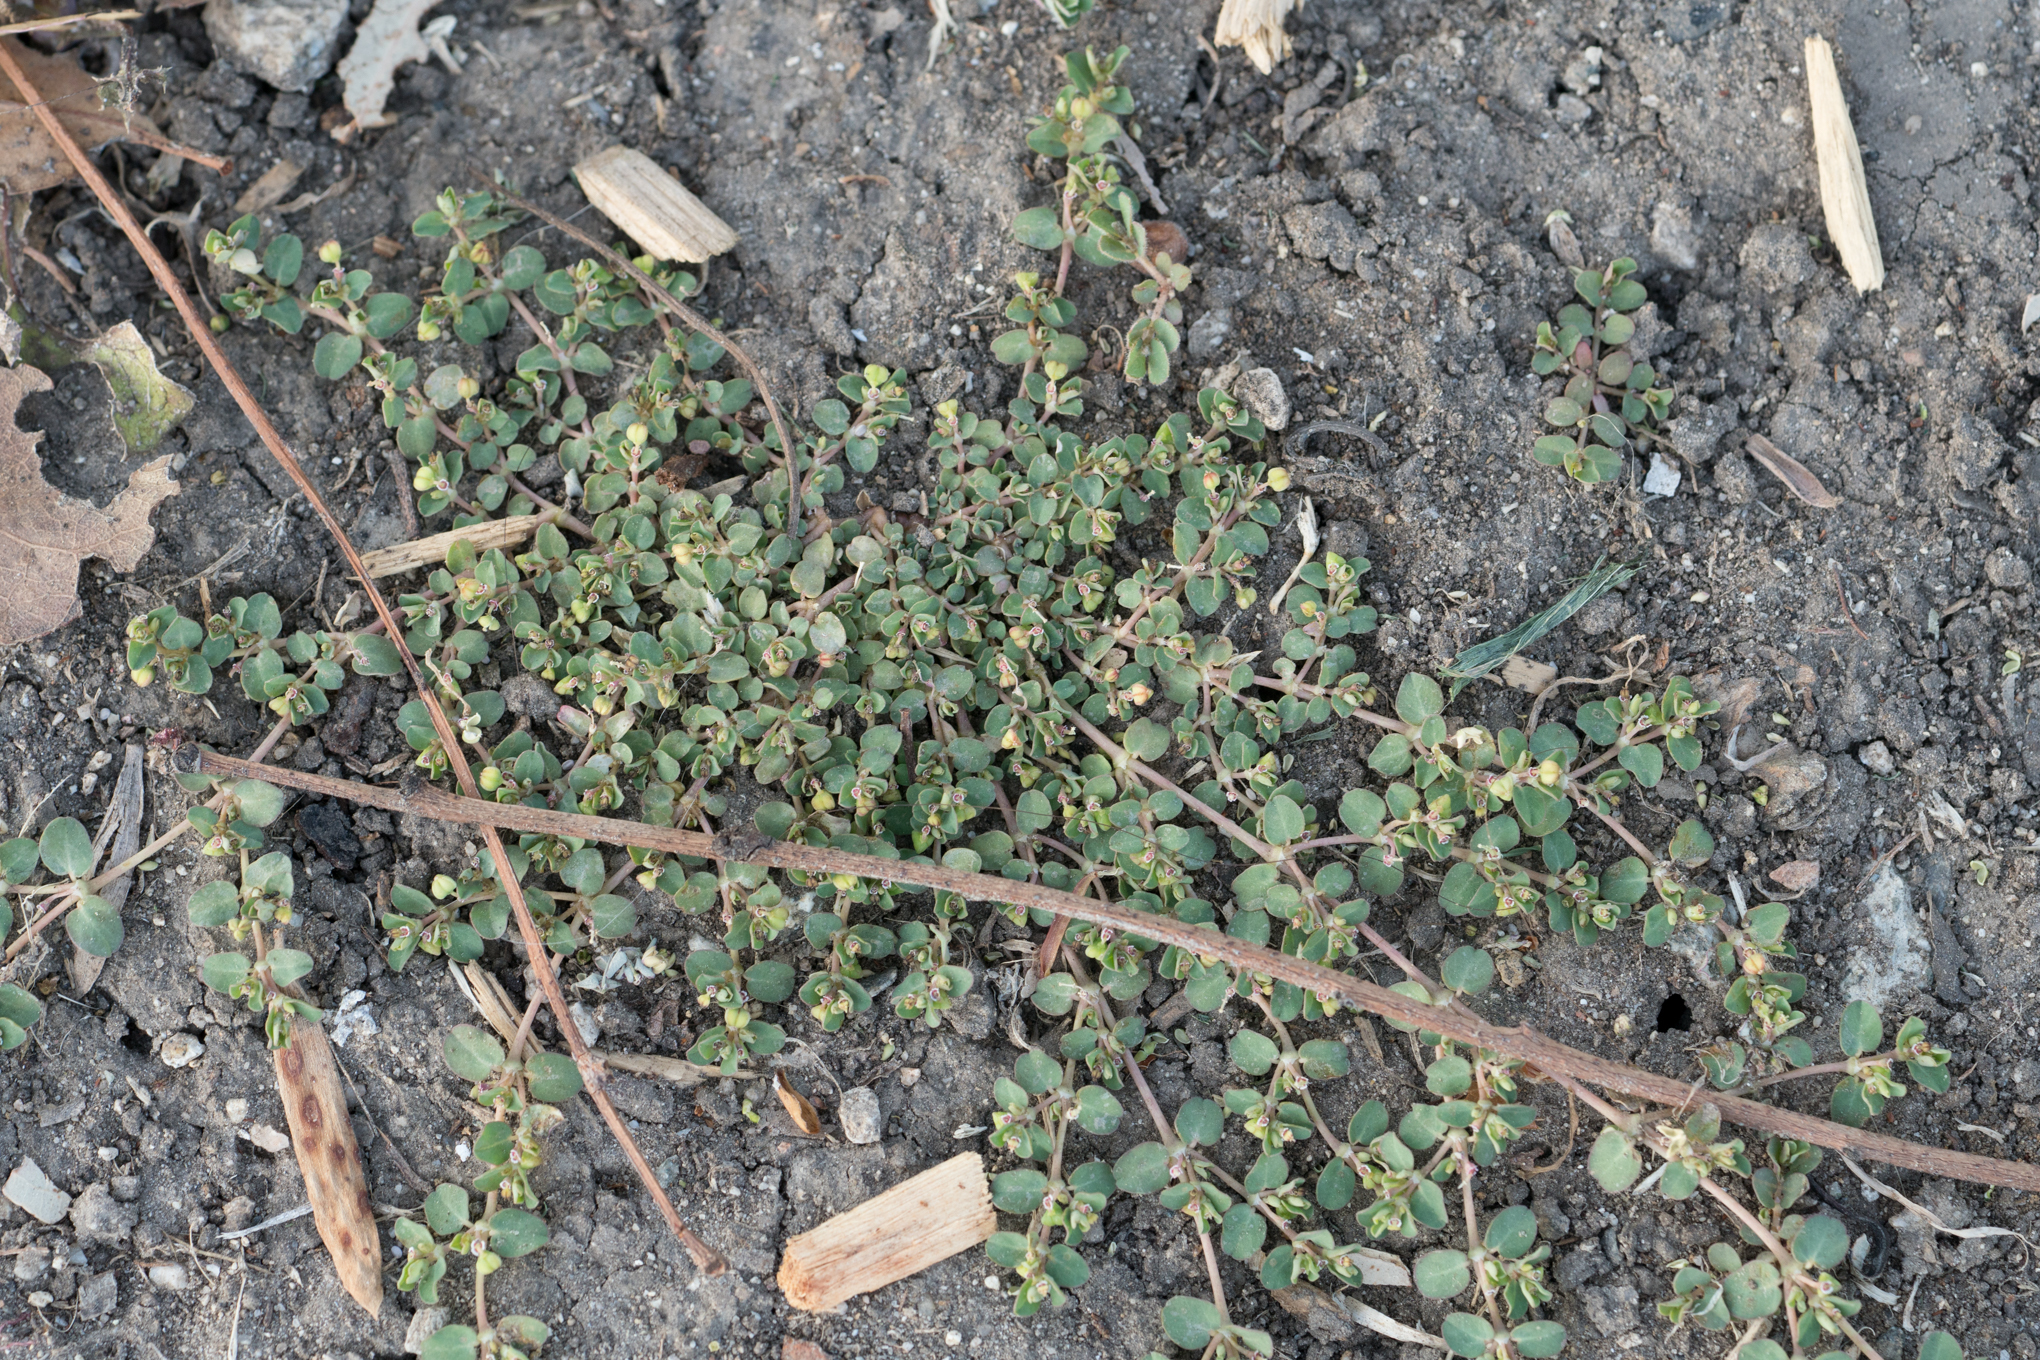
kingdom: Plantae
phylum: Tracheophyta
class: Magnoliopsida
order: Malpighiales
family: Euphorbiaceae
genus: Euphorbia
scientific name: Euphorbia serpens
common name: Matted sandmat
